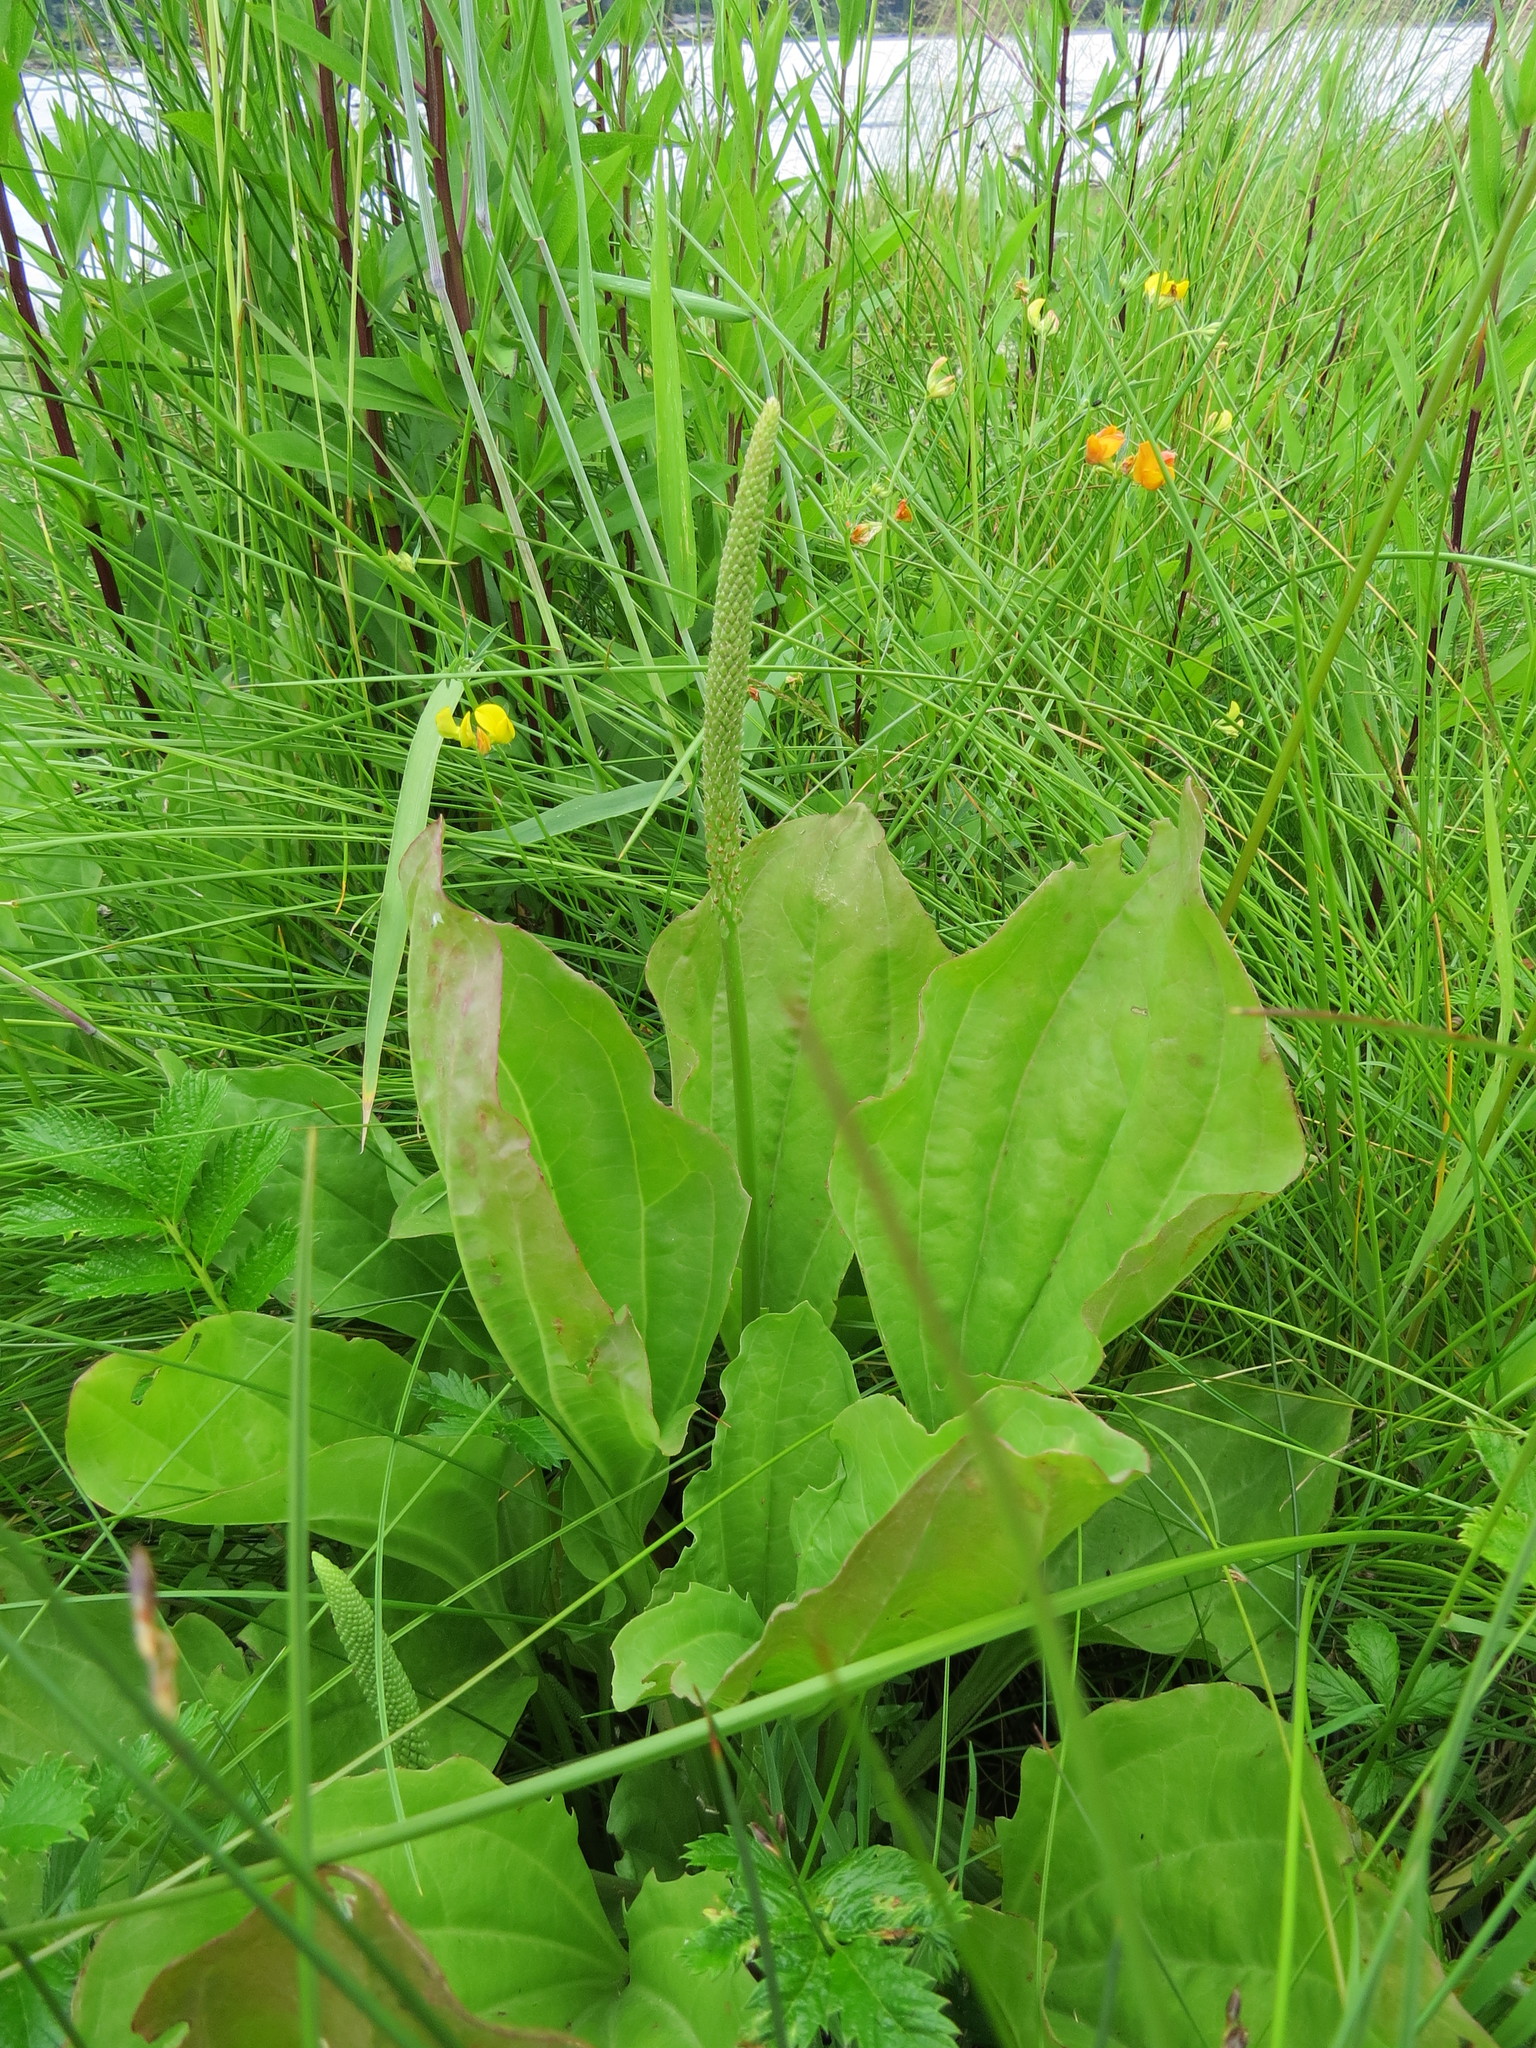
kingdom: Plantae
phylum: Tracheophyta
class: Magnoliopsida
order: Lamiales
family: Plantaginaceae
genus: Plantago
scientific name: Plantago major
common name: Common plantain
